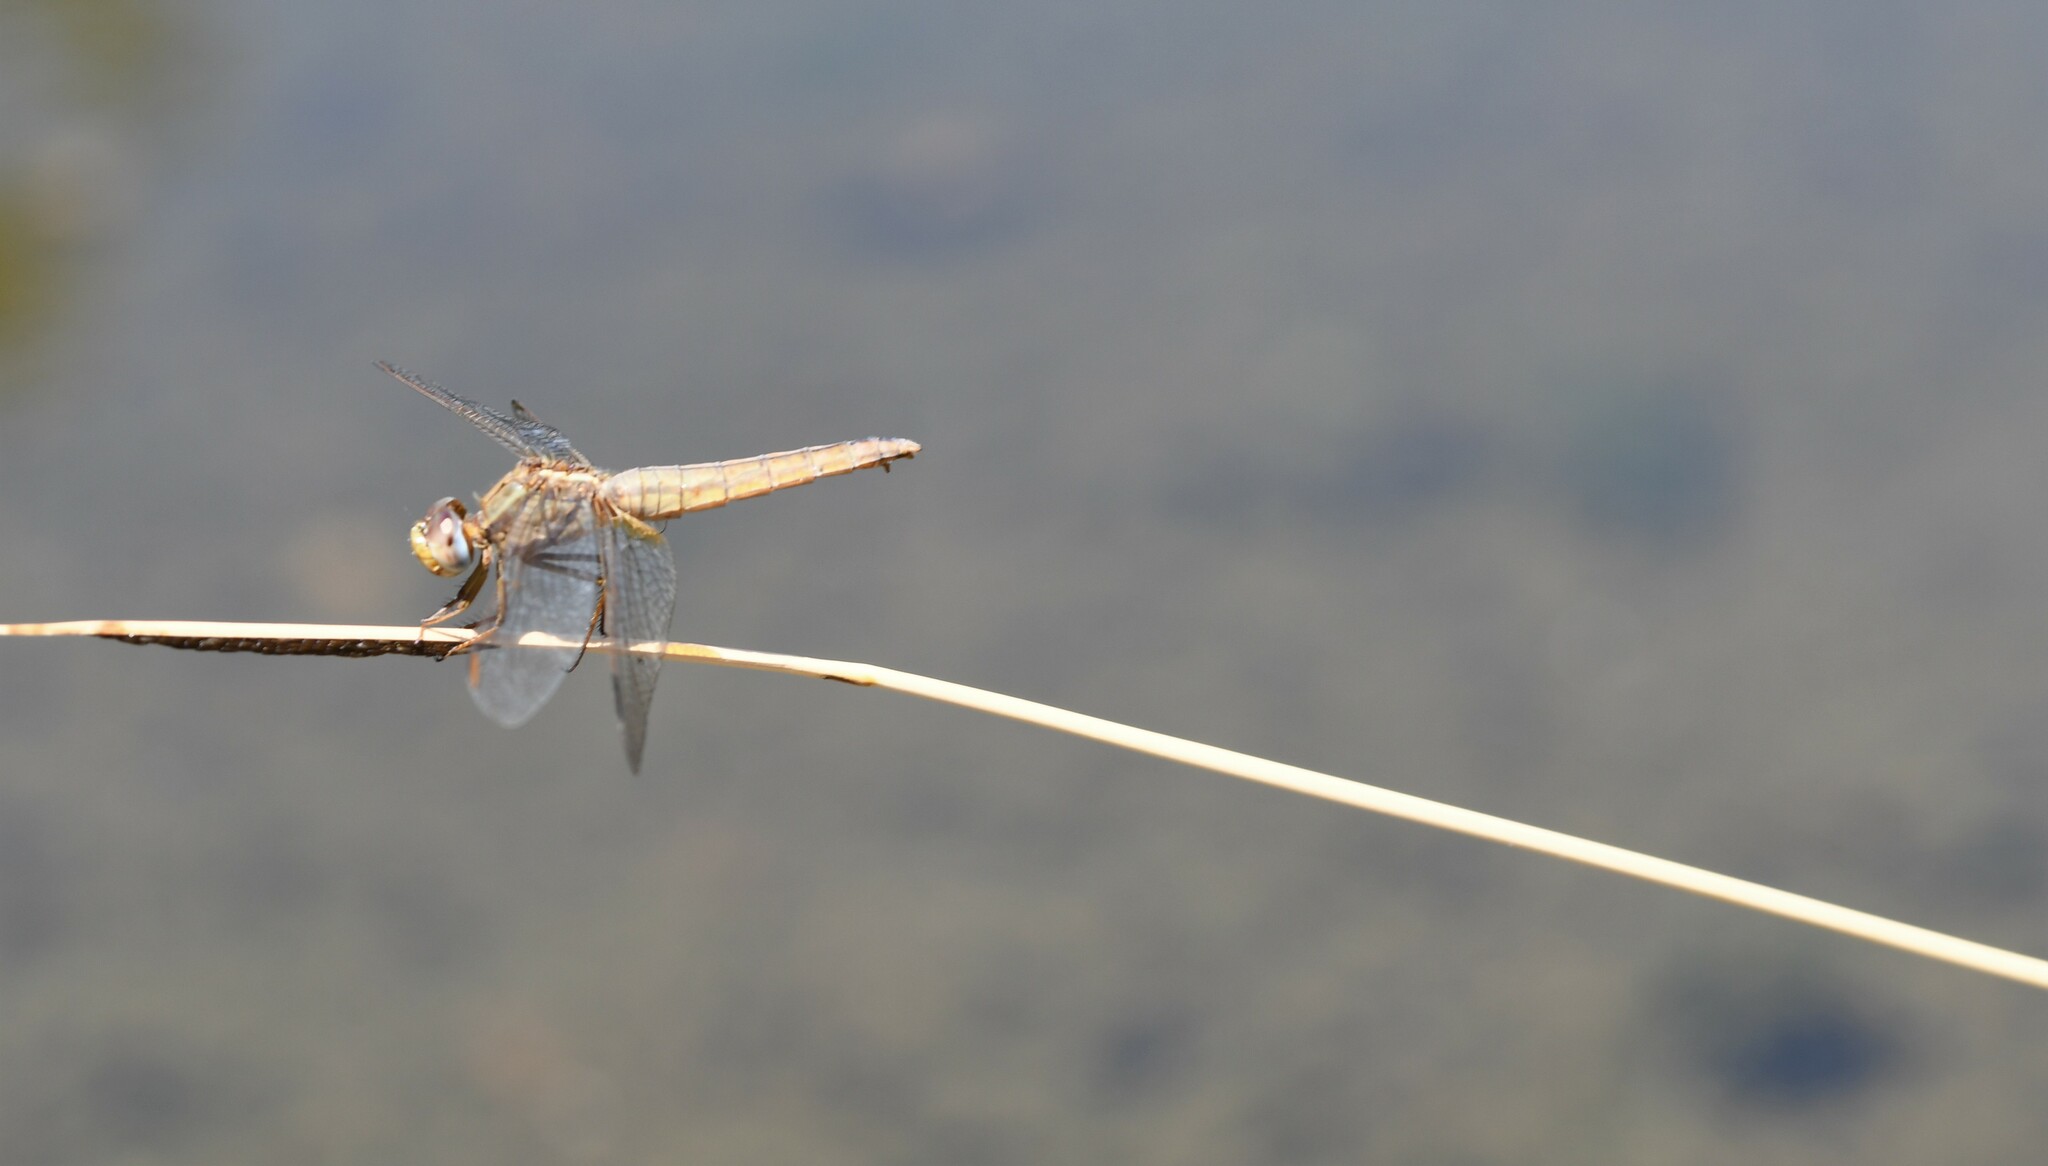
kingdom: Animalia
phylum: Arthropoda
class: Insecta
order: Odonata
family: Libellulidae
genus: Crocothemis
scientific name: Crocothemis erythraea
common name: Scarlet dragonfly
